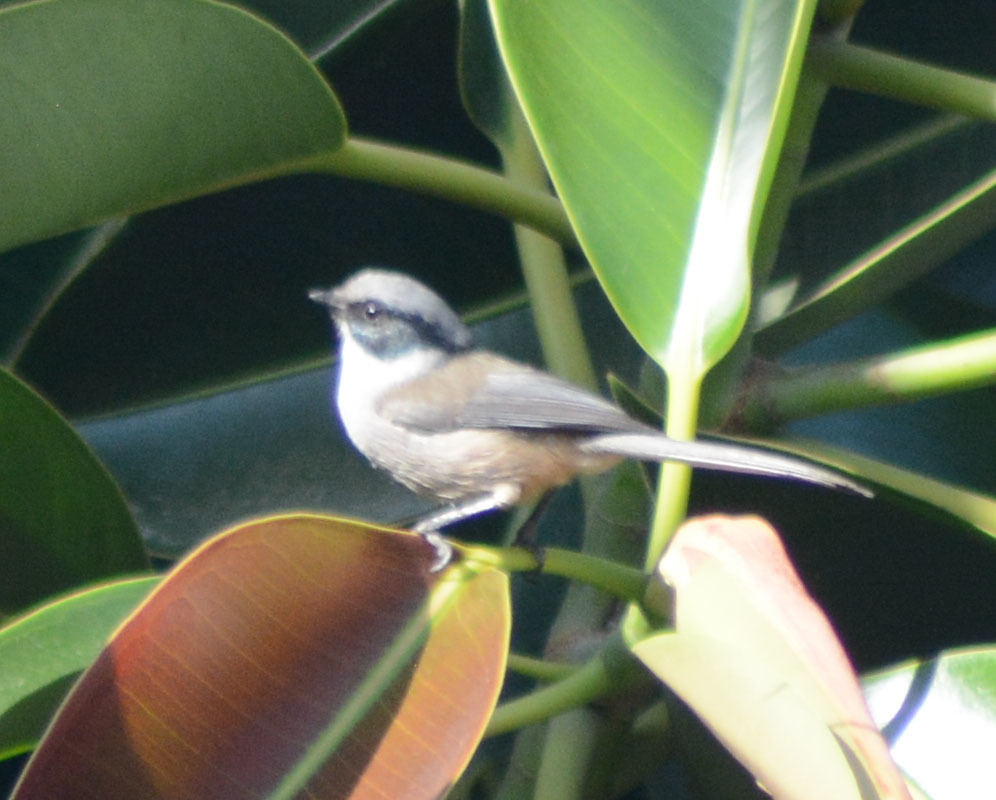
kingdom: Animalia
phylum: Chordata
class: Aves
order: Passeriformes
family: Aegithalidae
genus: Psaltriparus
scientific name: Psaltriparus minimus
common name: American bushtit
